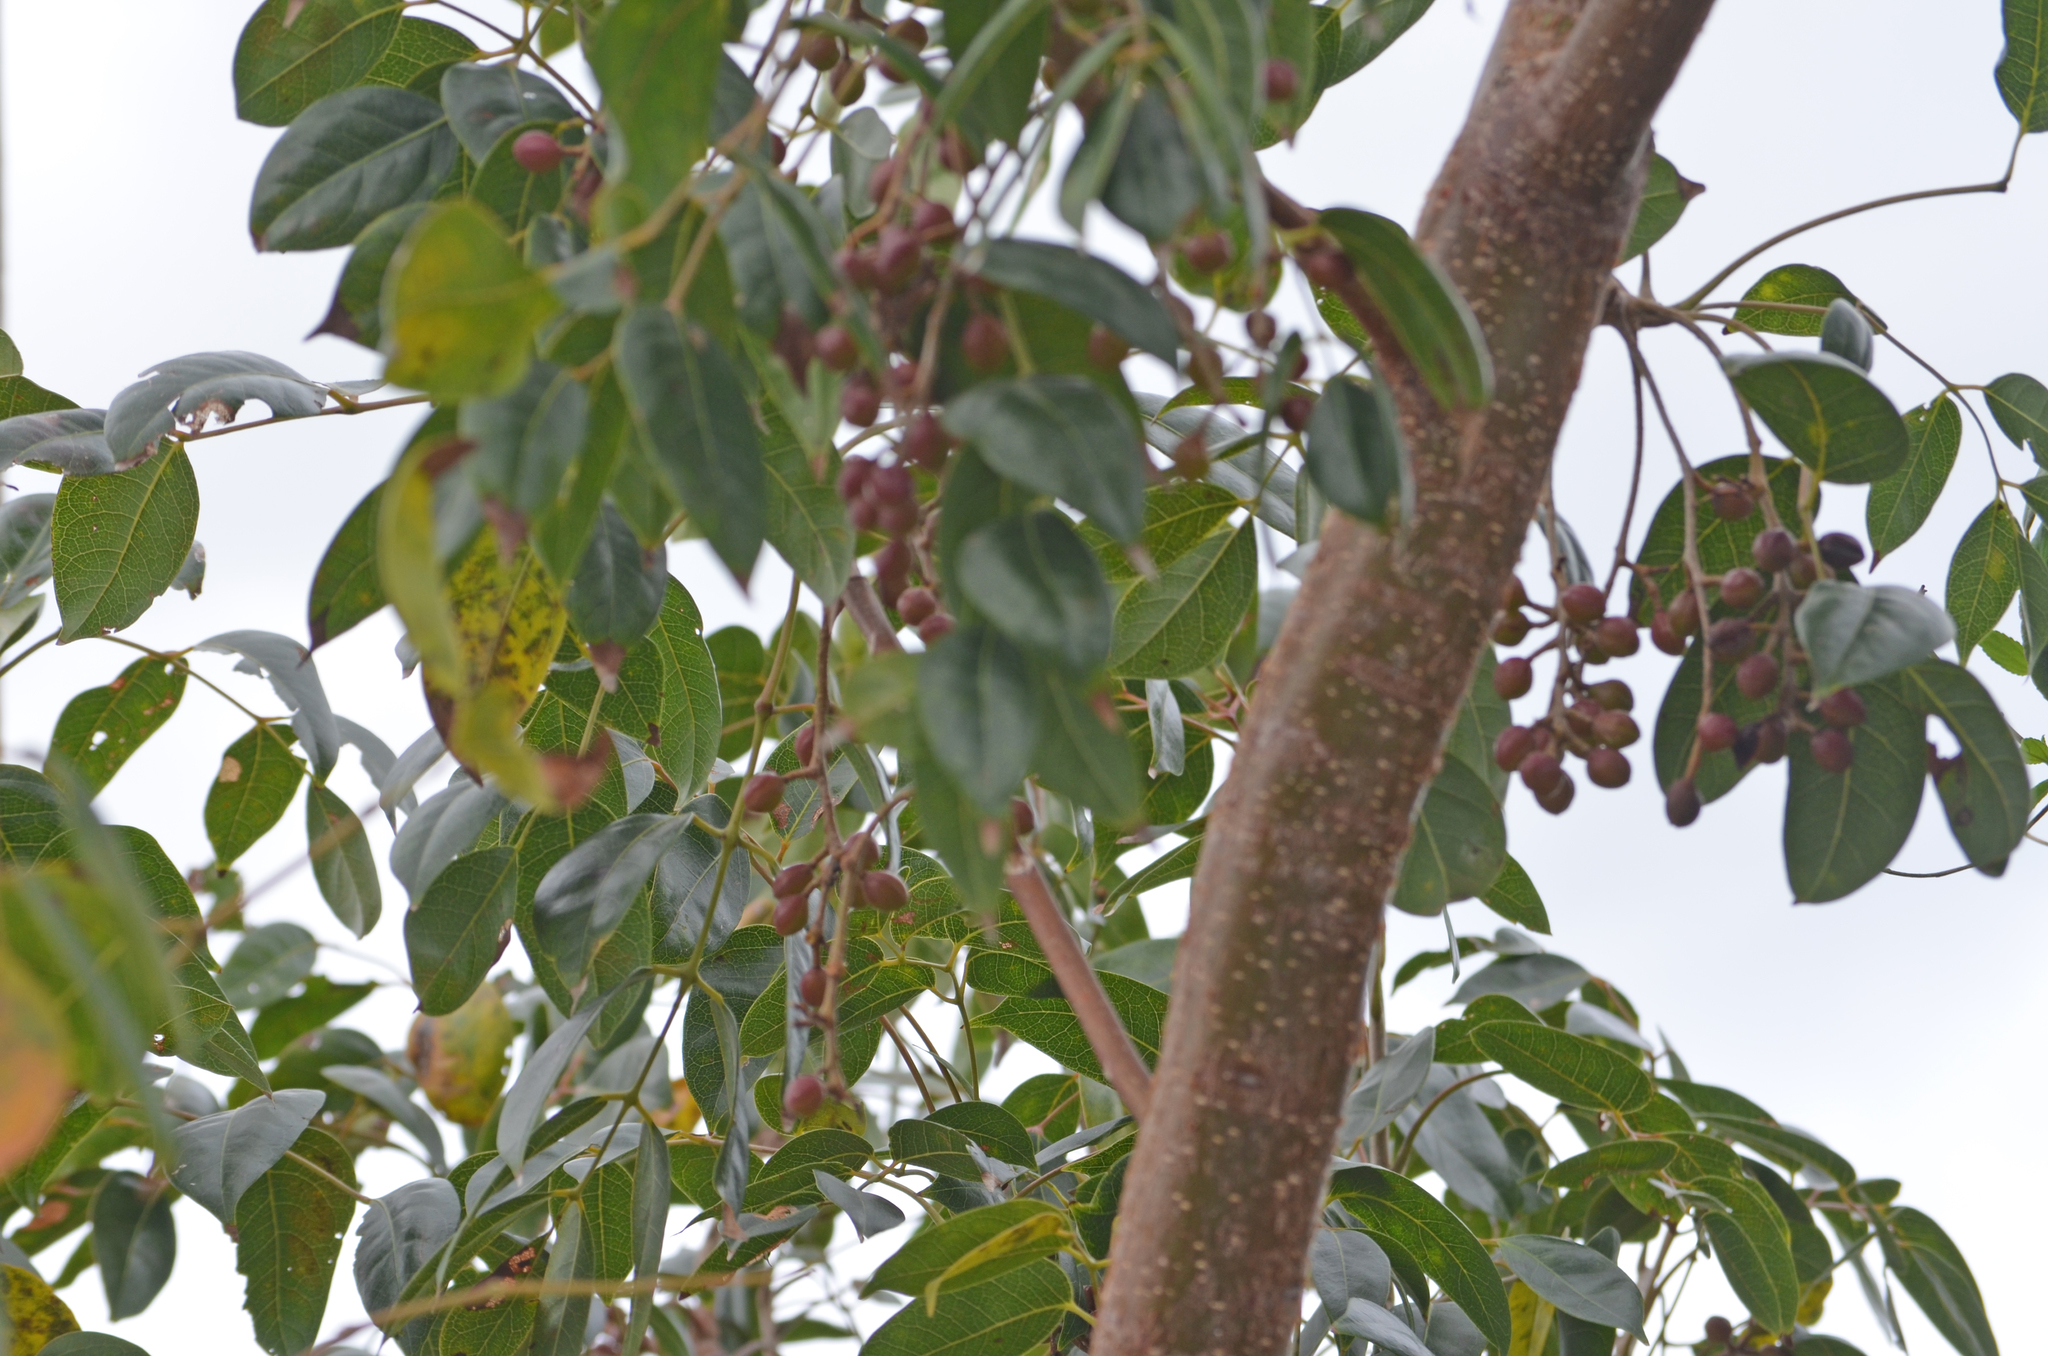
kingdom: Plantae
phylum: Tracheophyta
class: Magnoliopsida
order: Sapindales
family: Burseraceae
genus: Bursera
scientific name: Bursera simaruba
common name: Turpentine tree
